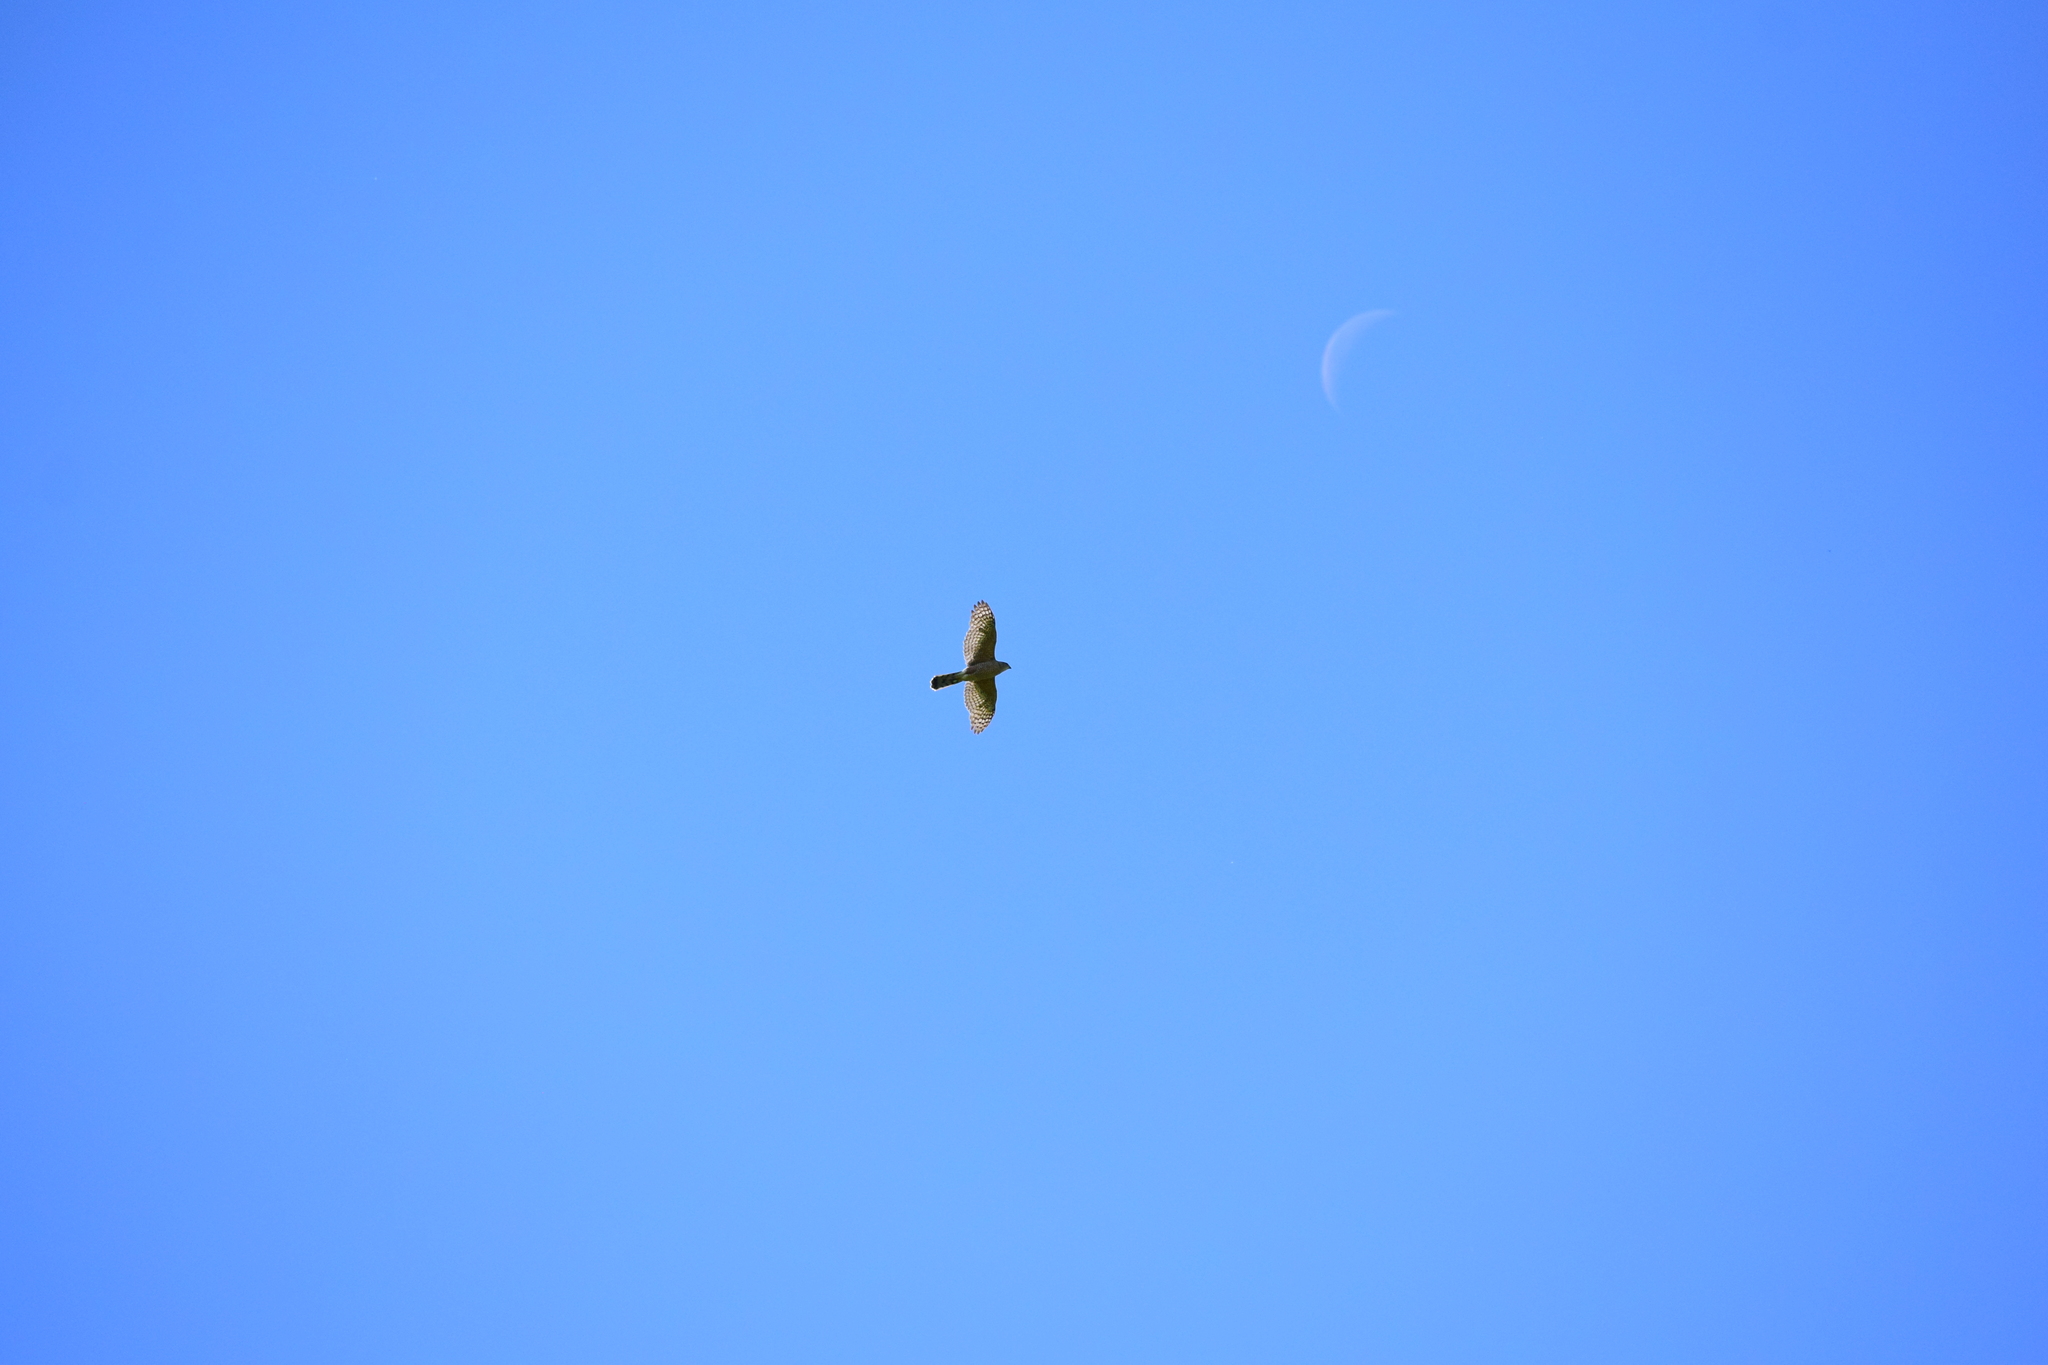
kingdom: Animalia
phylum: Chordata
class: Aves
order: Accipitriformes
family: Accipitridae
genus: Accipiter
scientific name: Accipiter cooperii
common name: Cooper's hawk
